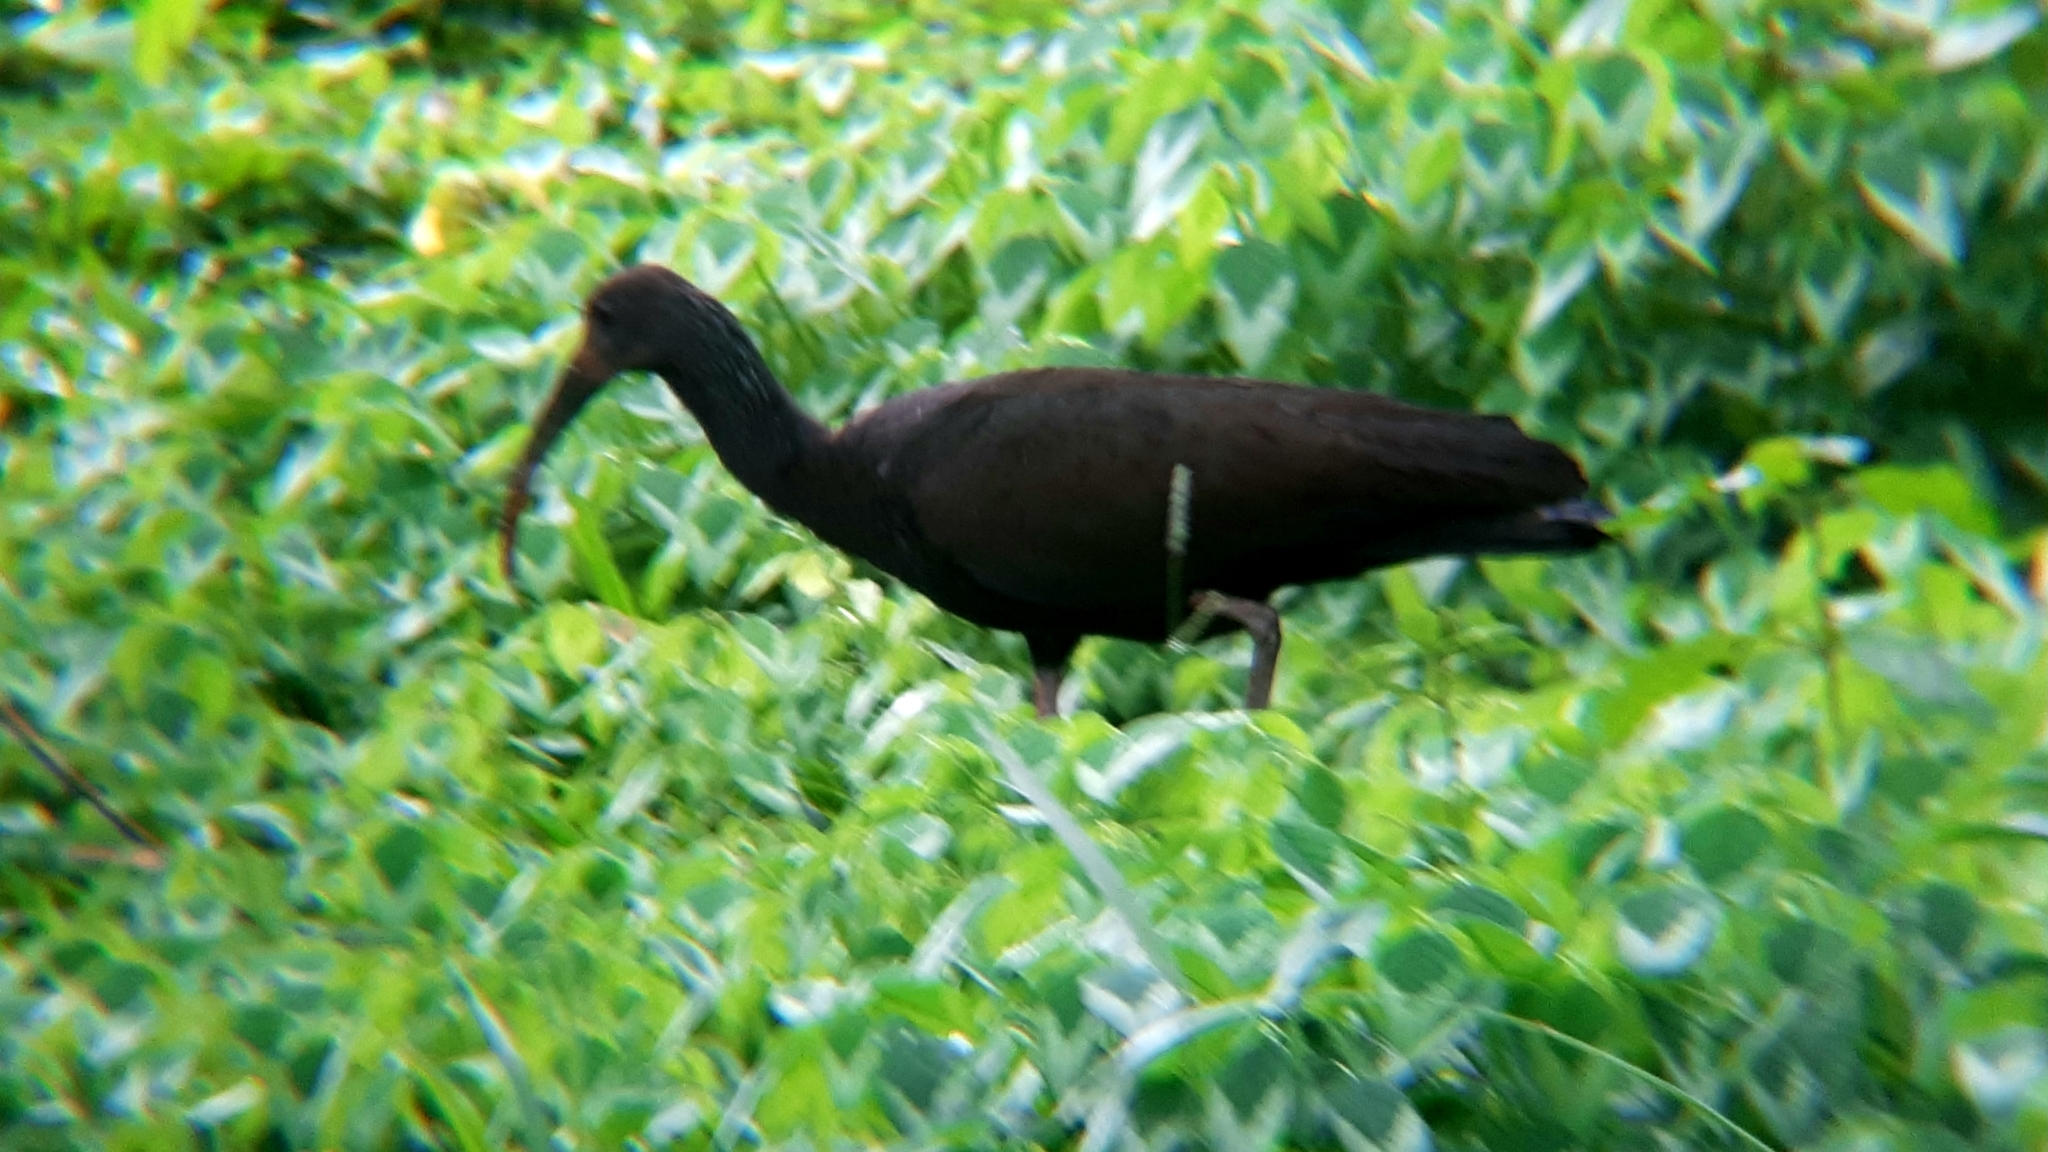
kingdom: Animalia
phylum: Chordata
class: Aves
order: Pelecaniformes
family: Threskiornithidae
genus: Mesembrinibis
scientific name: Mesembrinibis cayennensis
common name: Green ibis
